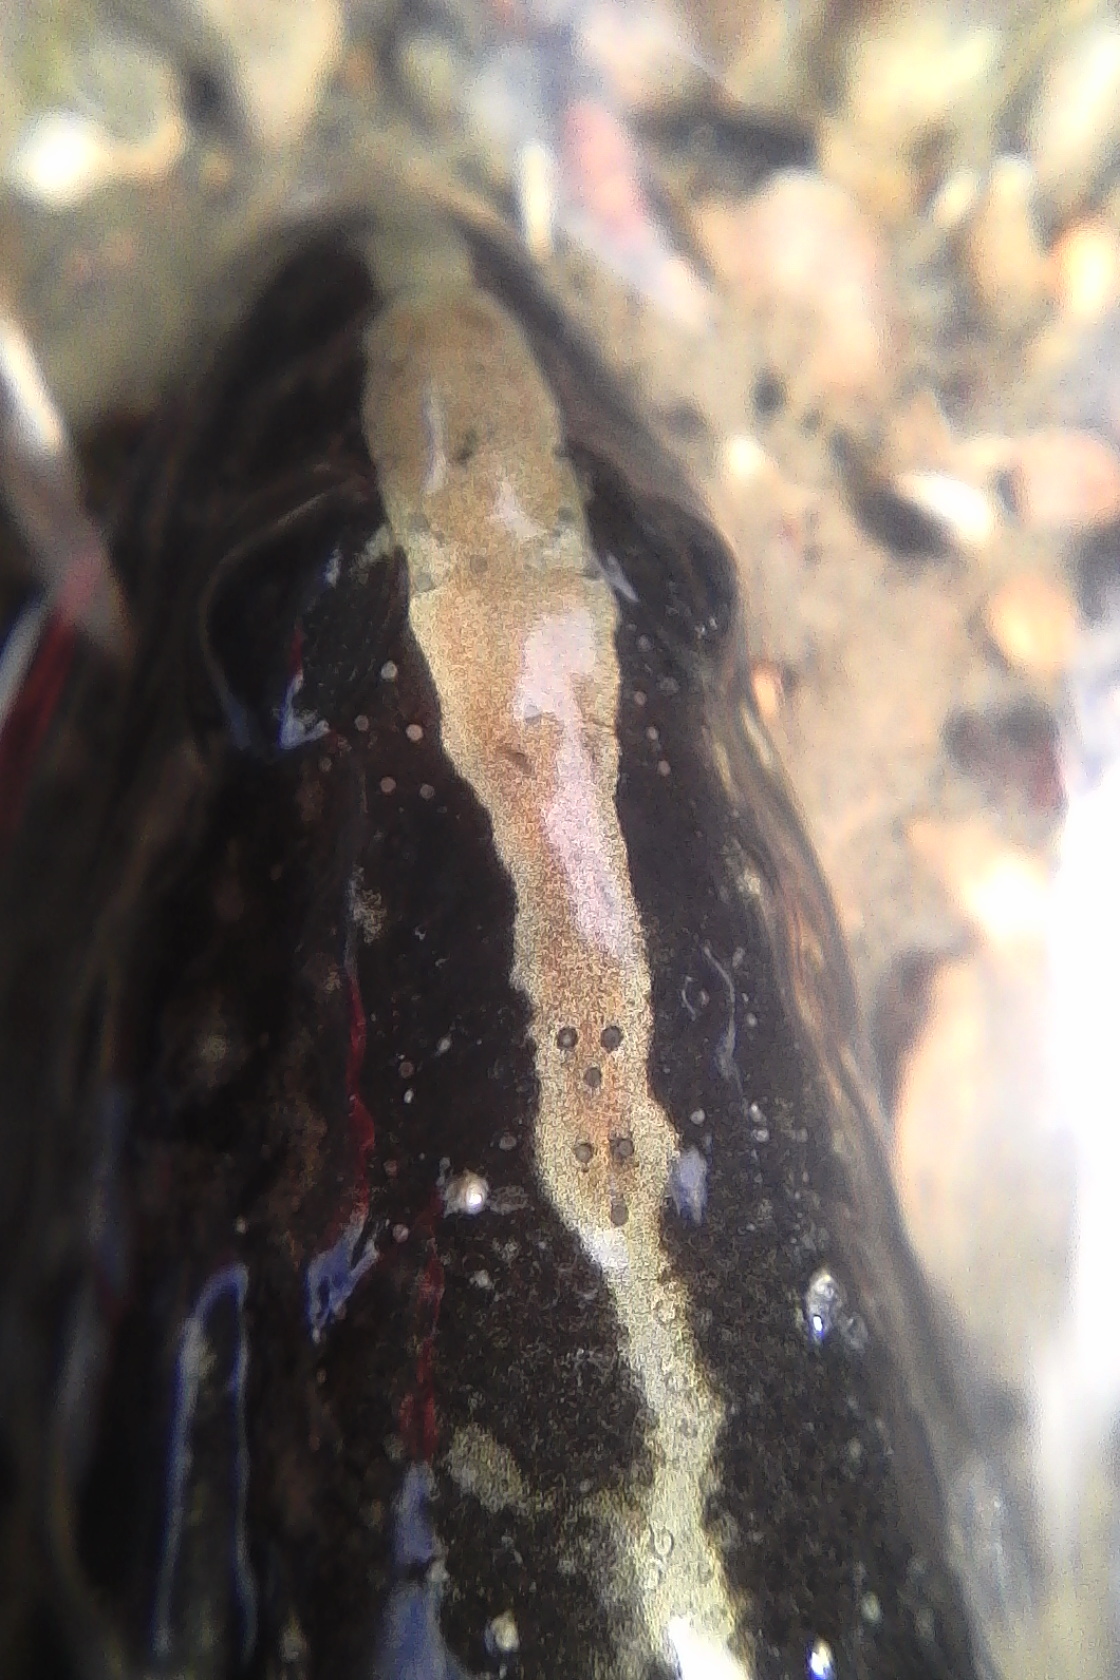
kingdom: Animalia
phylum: Chordata
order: Perciformes
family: Plesiopidae
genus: Acanthoclinus
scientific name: Acanthoclinus fuscus
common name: Olive rockfish
